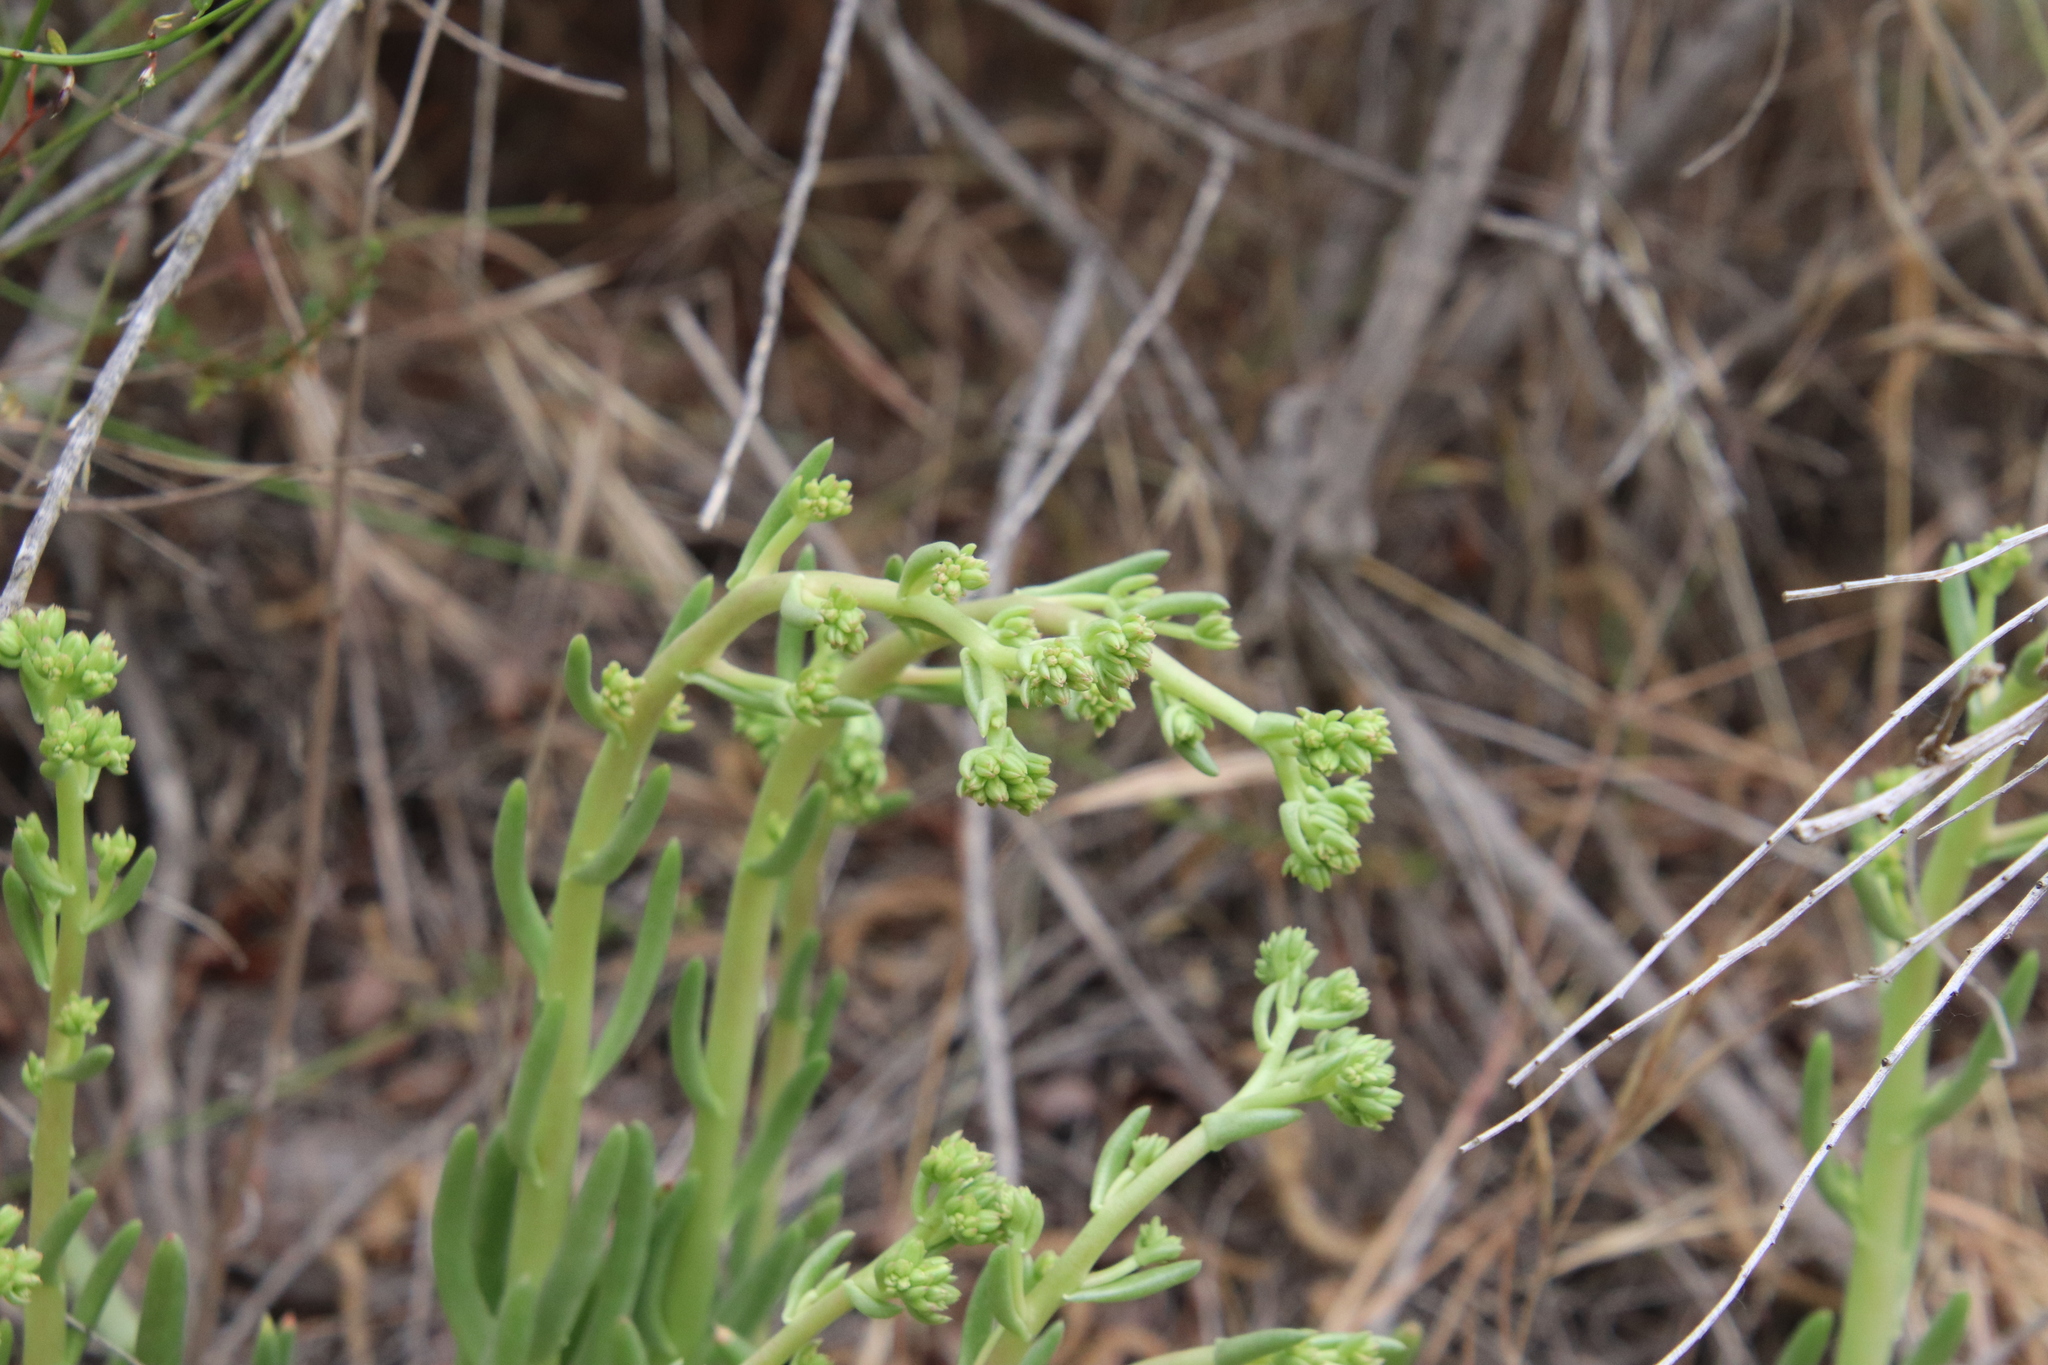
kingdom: Plantae
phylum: Tracheophyta
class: Magnoliopsida
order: Saxifragales
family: Crassulaceae
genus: Dudleya
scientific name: Dudleya edulis
